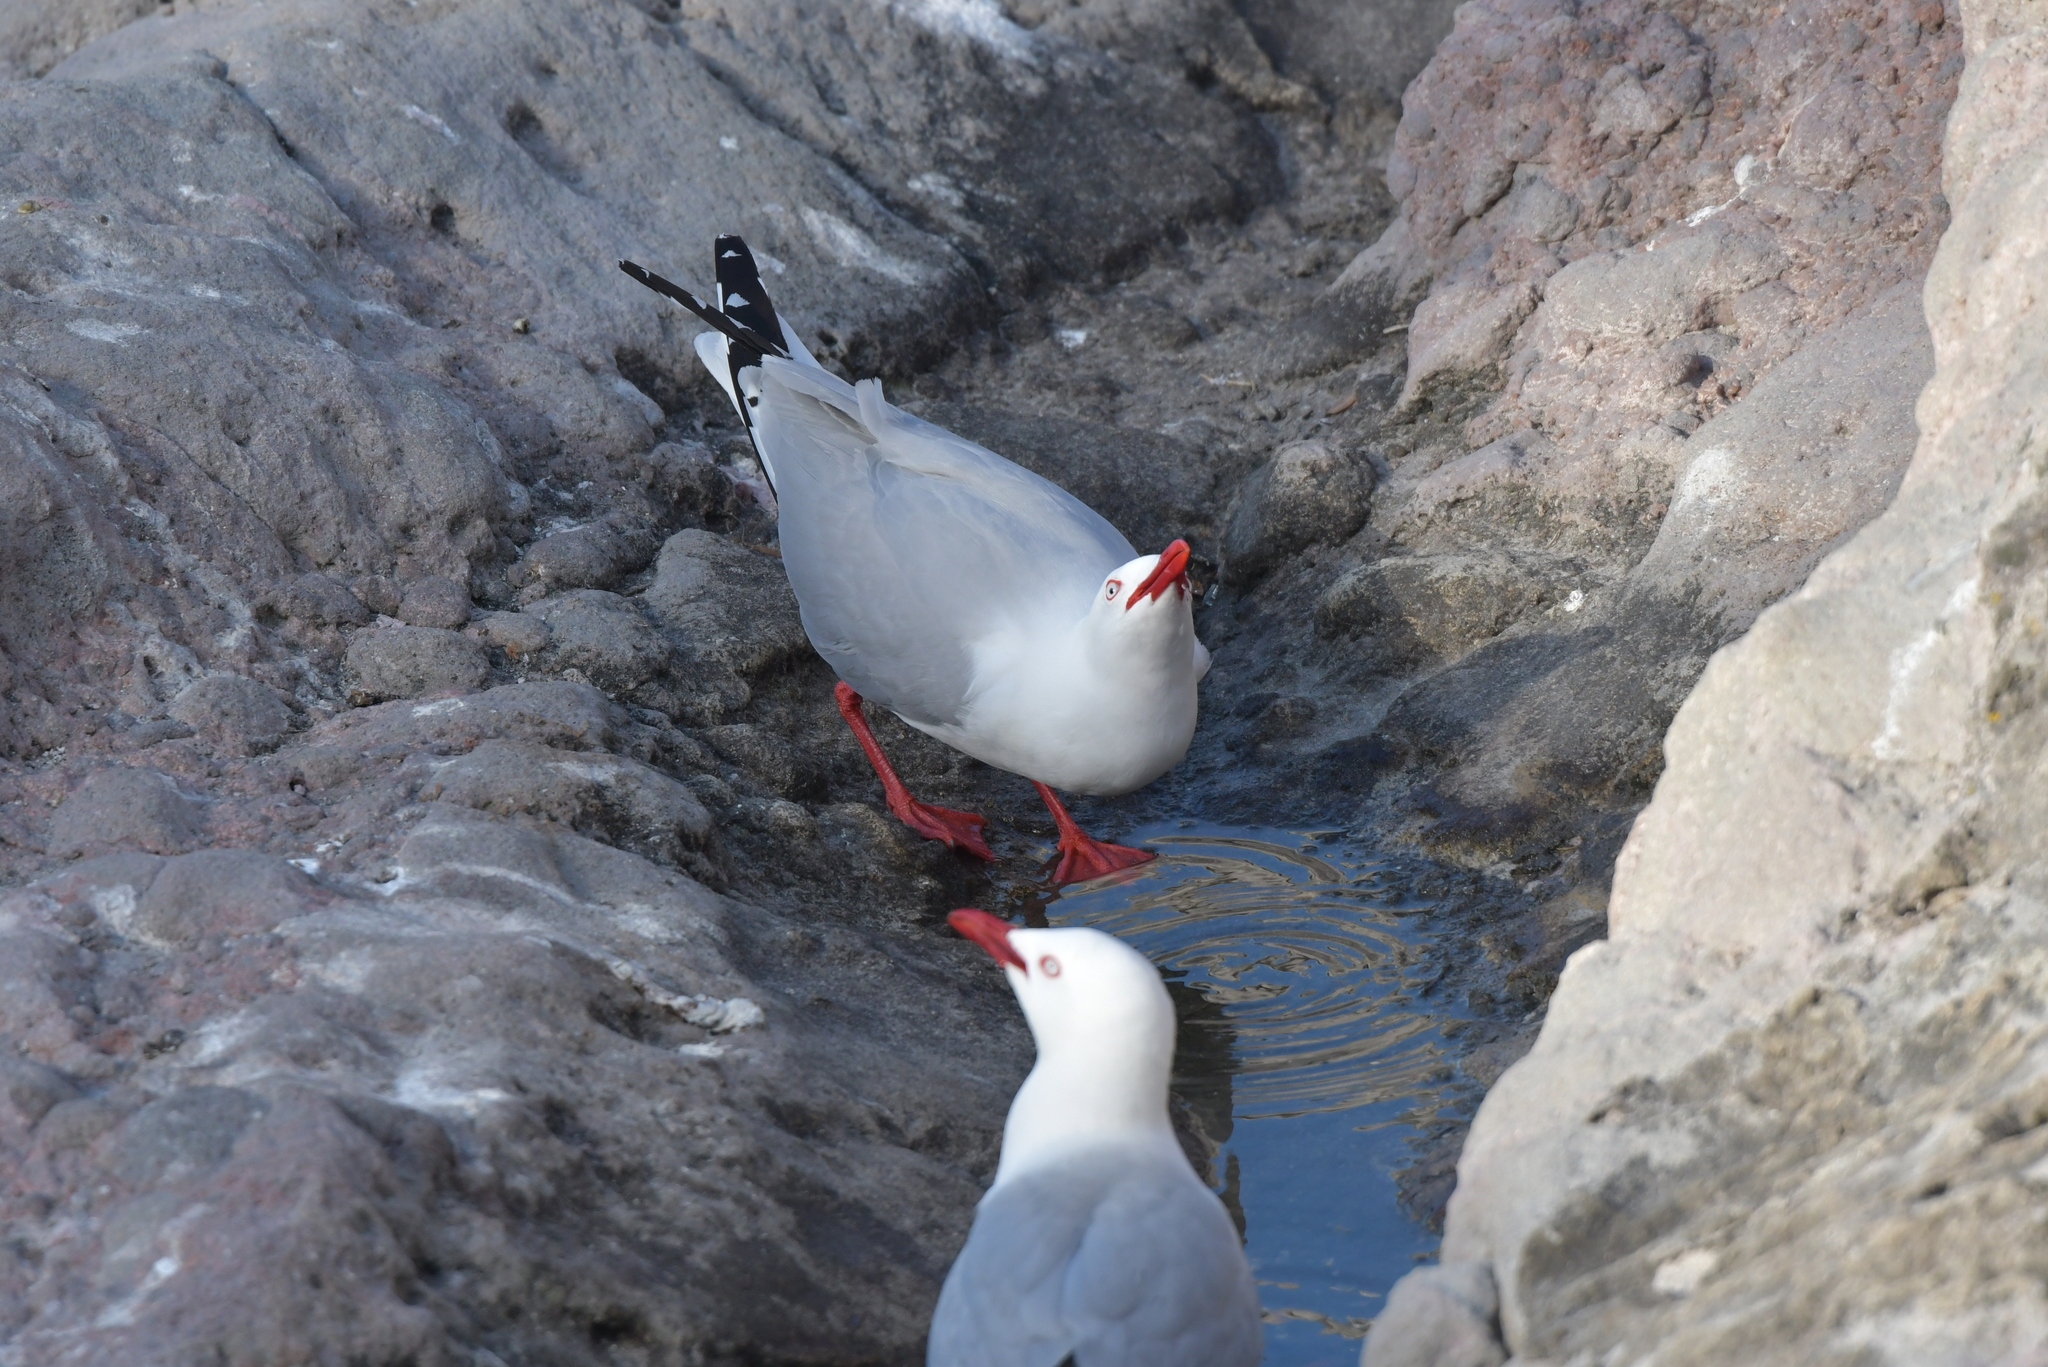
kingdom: Animalia
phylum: Chordata
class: Aves
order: Charadriiformes
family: Laridae
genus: Chroicocephalus
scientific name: Chroicocephalus novaehollandiae
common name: Silver gull
